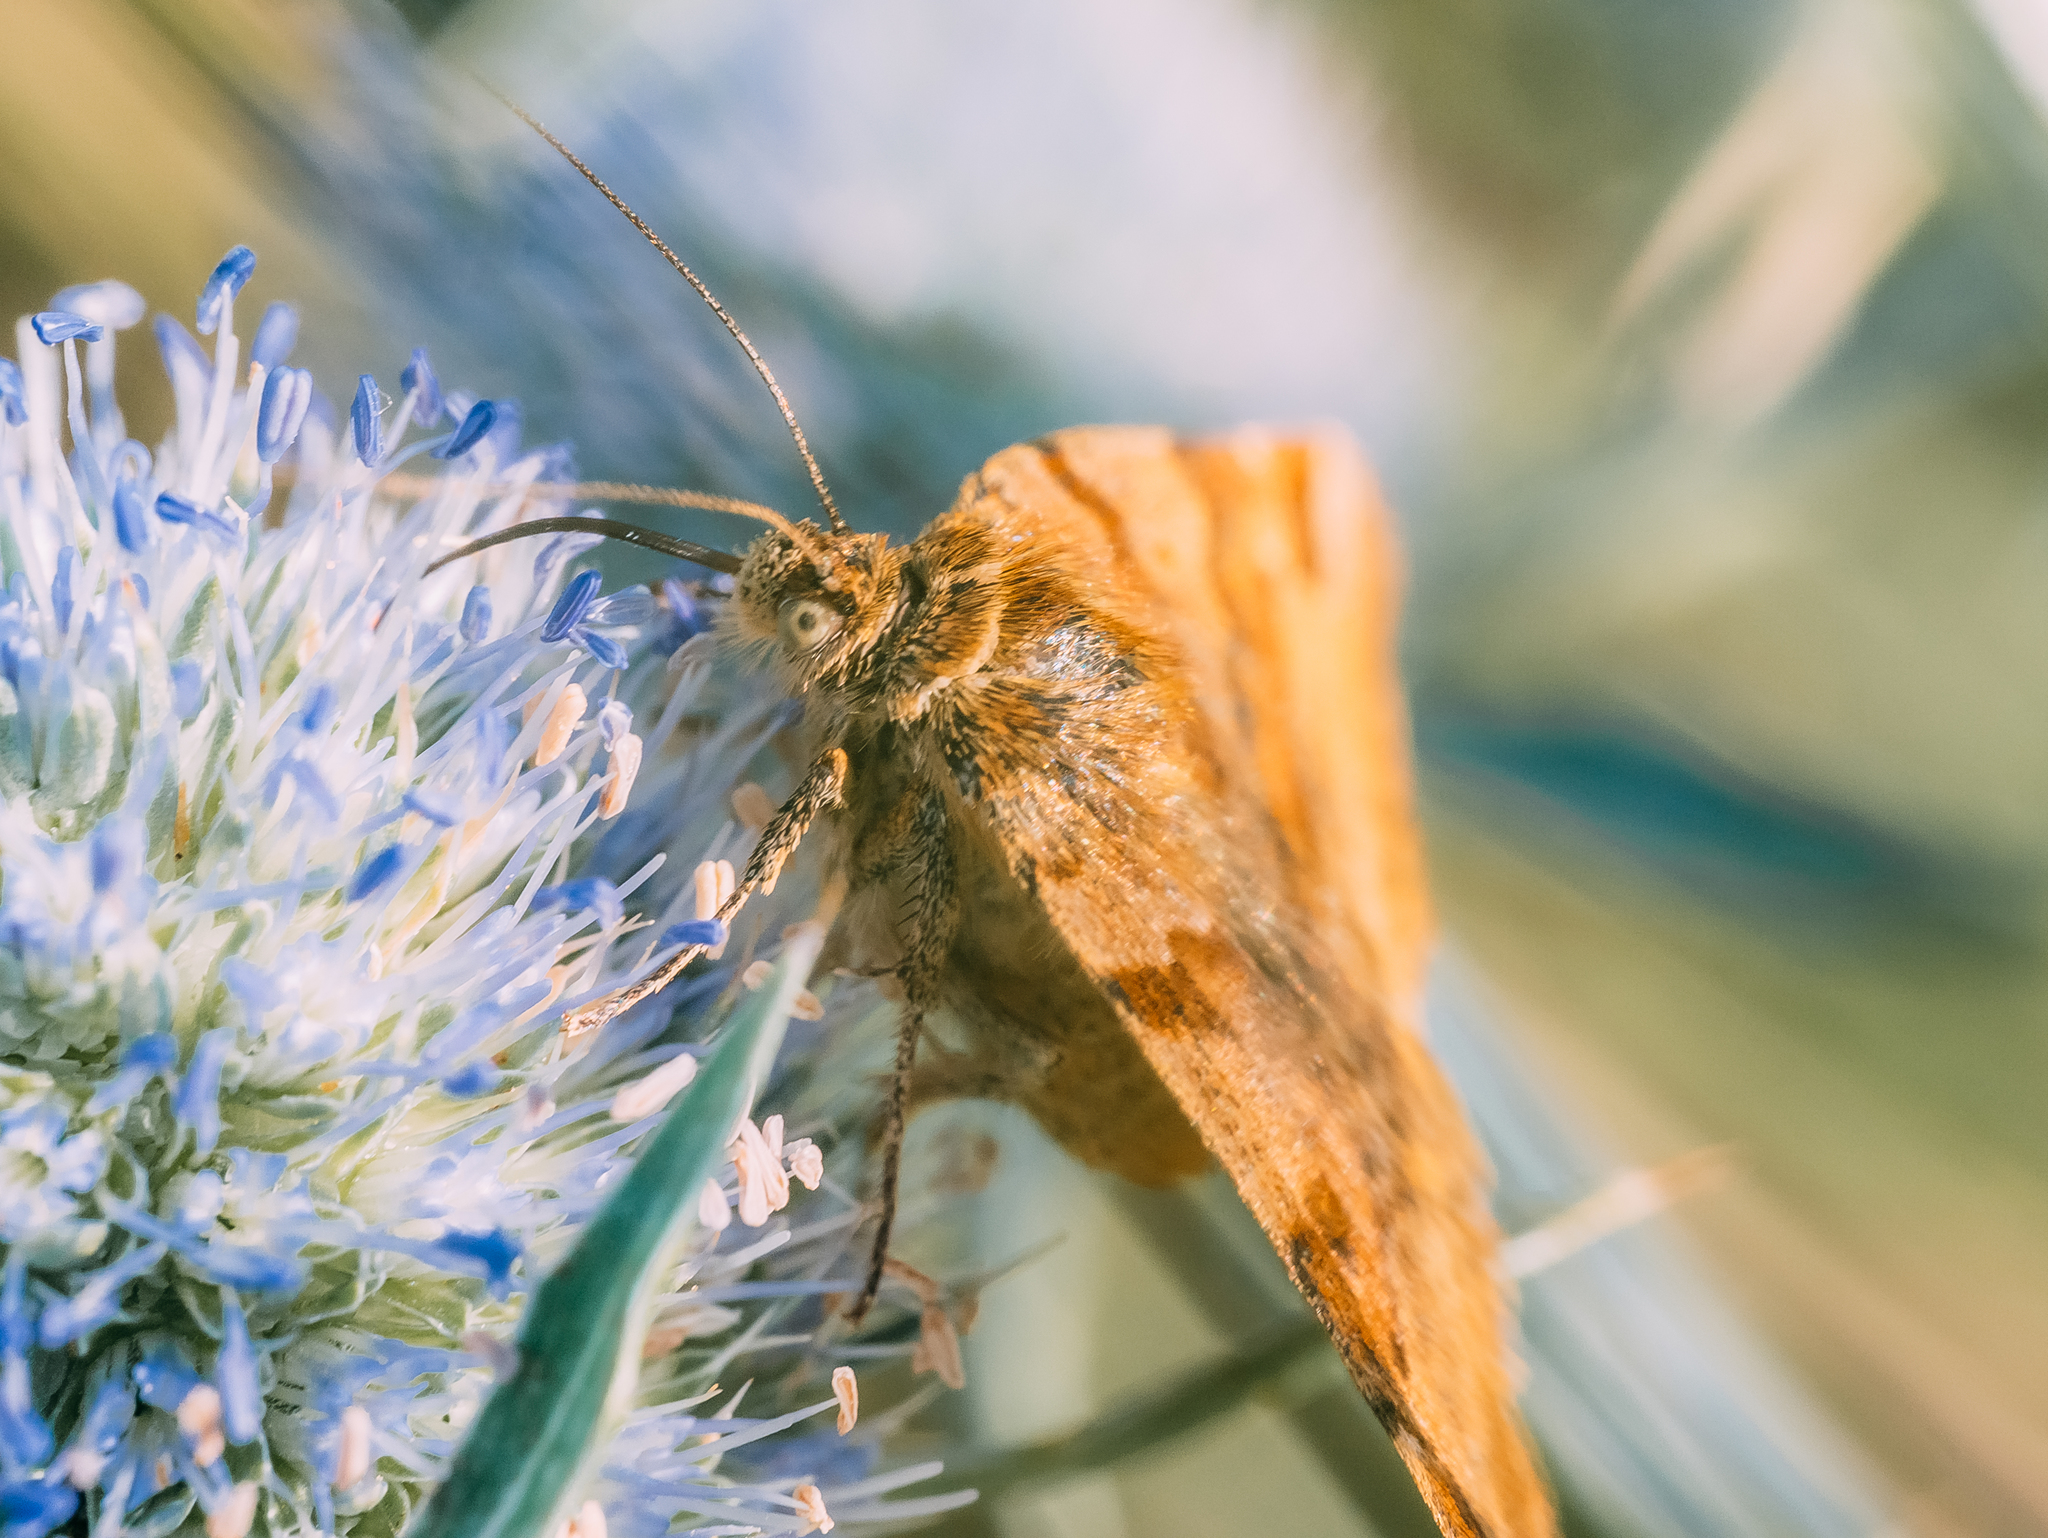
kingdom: Animalia
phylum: Arthropoda
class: Insecta
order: Lepidoptera
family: Erebidae
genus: Euclidia
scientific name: Euclidia glyphica
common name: Burnet companion
